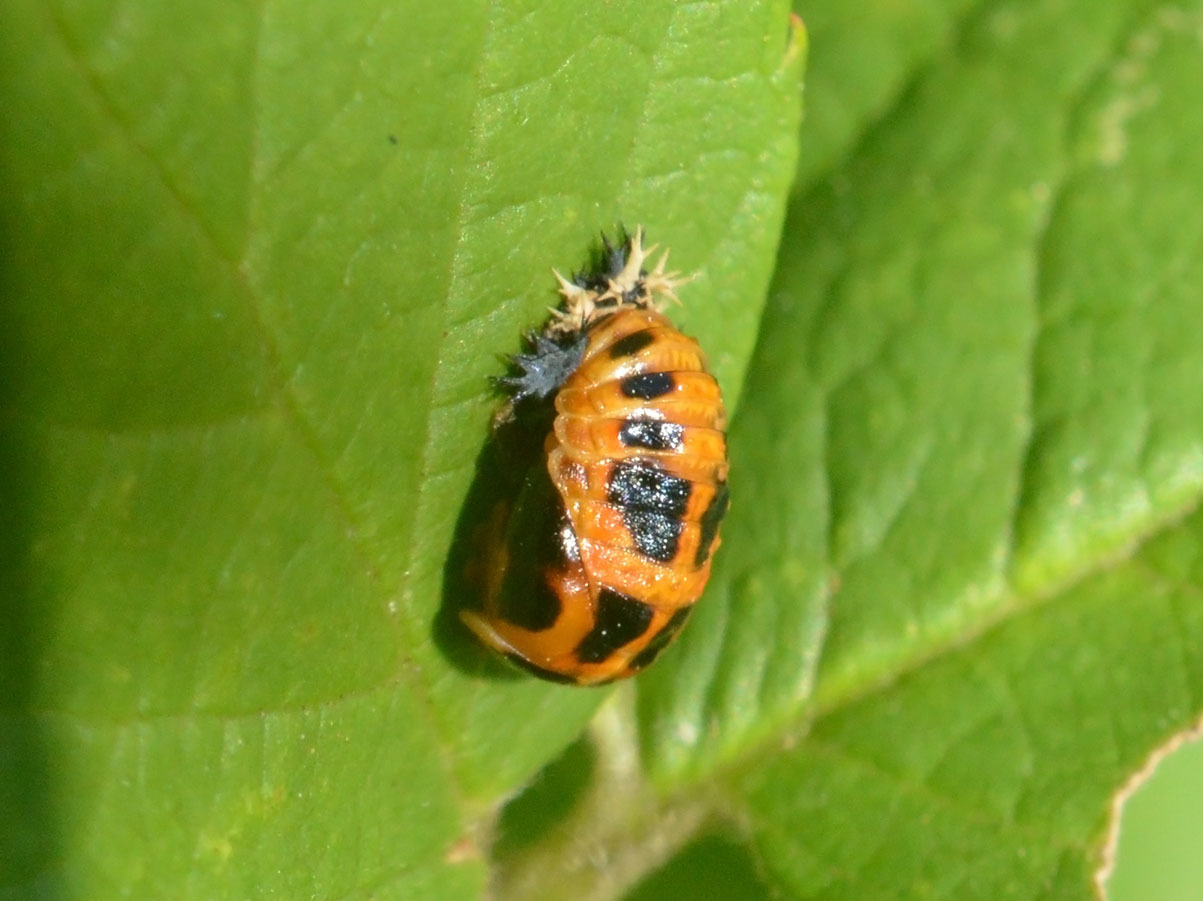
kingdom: Animalia
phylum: Arthropoda
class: Insecta
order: Coleoptera
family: Coccinellidae
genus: Harmonia
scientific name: Harmonia axyridis
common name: Harlequin ladybird
